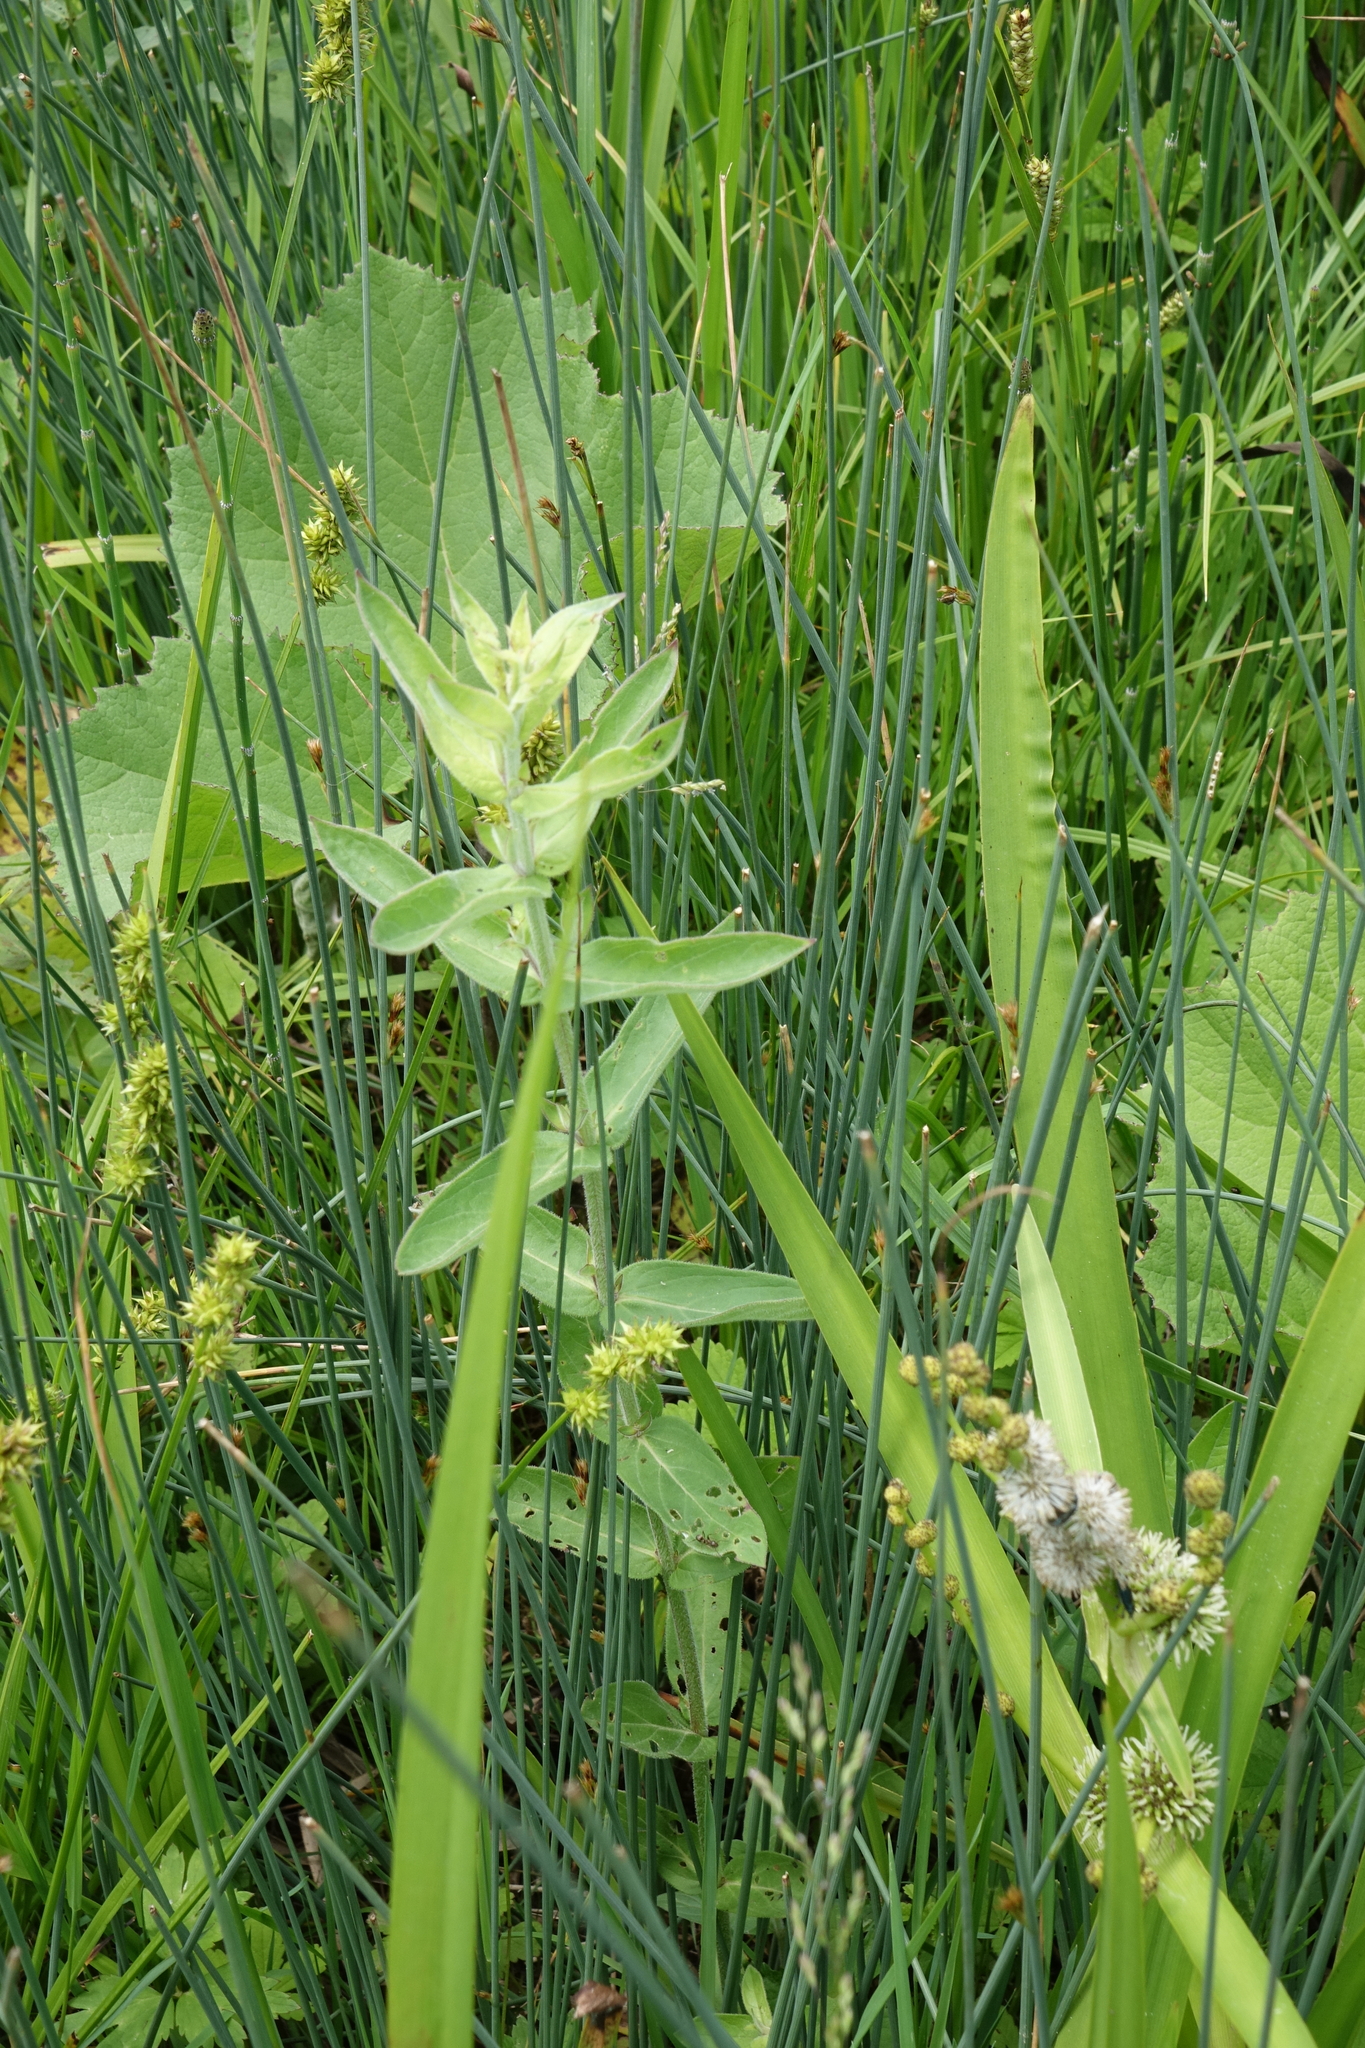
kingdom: Plantae
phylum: Tracheophyta
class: Magnoliopsida
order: Myrtales
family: Lythraceae
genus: Lythrum
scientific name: Lythrum salicaria
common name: Purple loosestrife
